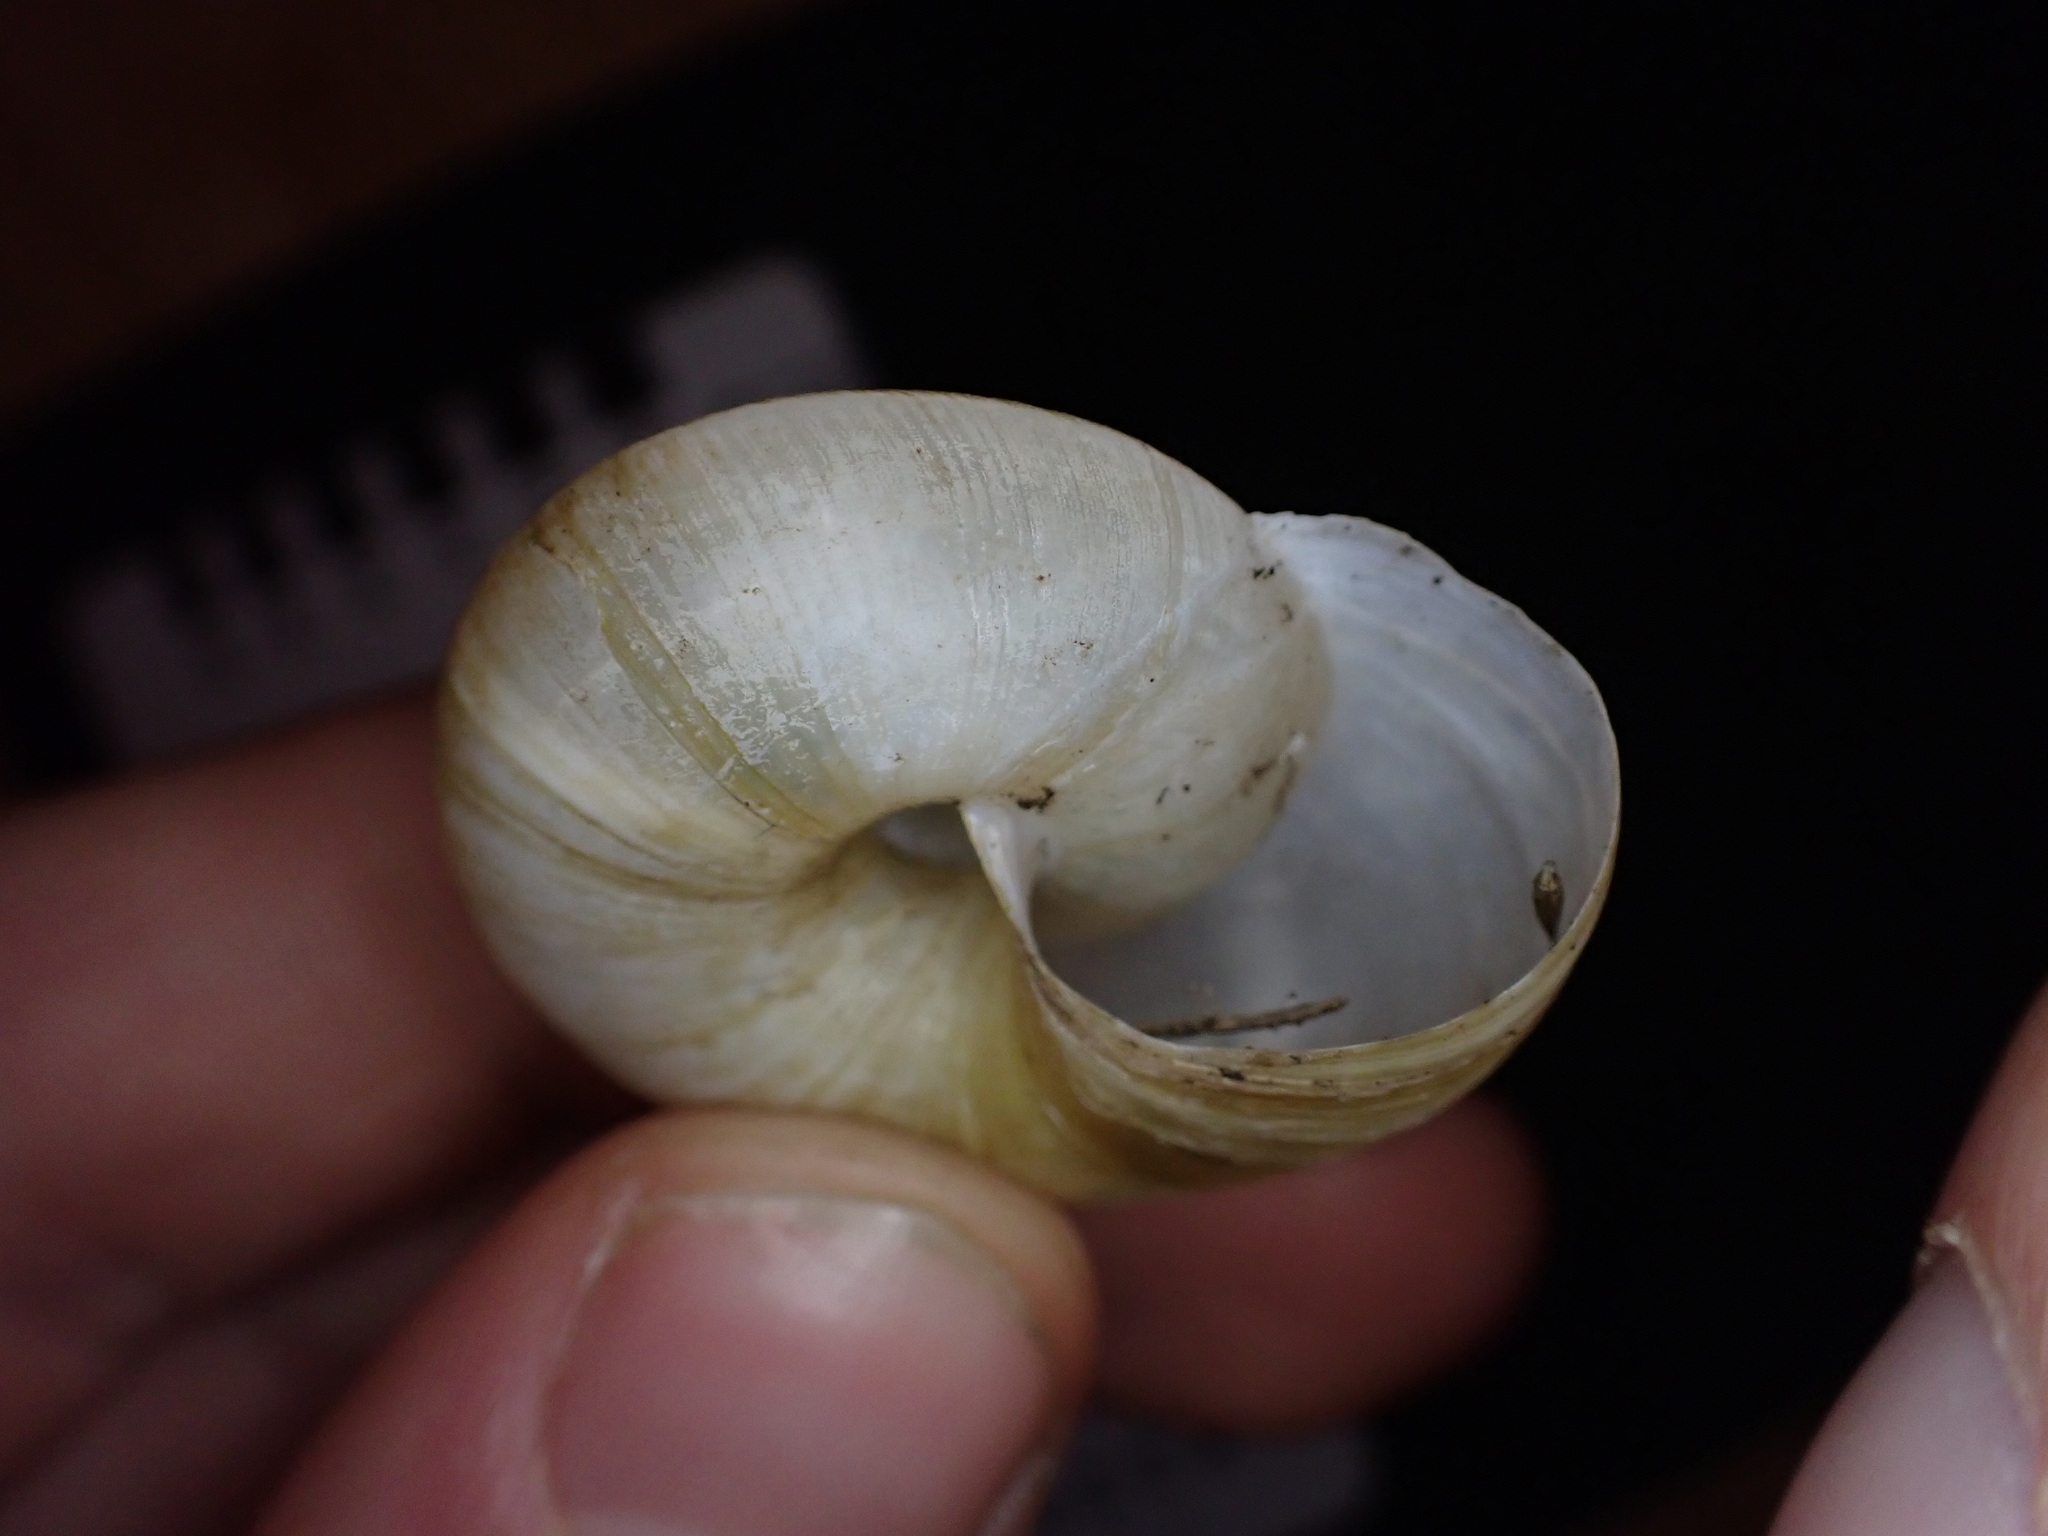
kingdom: Animalia
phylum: Mollusca
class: Gastropoda
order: Stylommatophora
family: Zonitidae
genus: Zonites
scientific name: Zonites algirus
